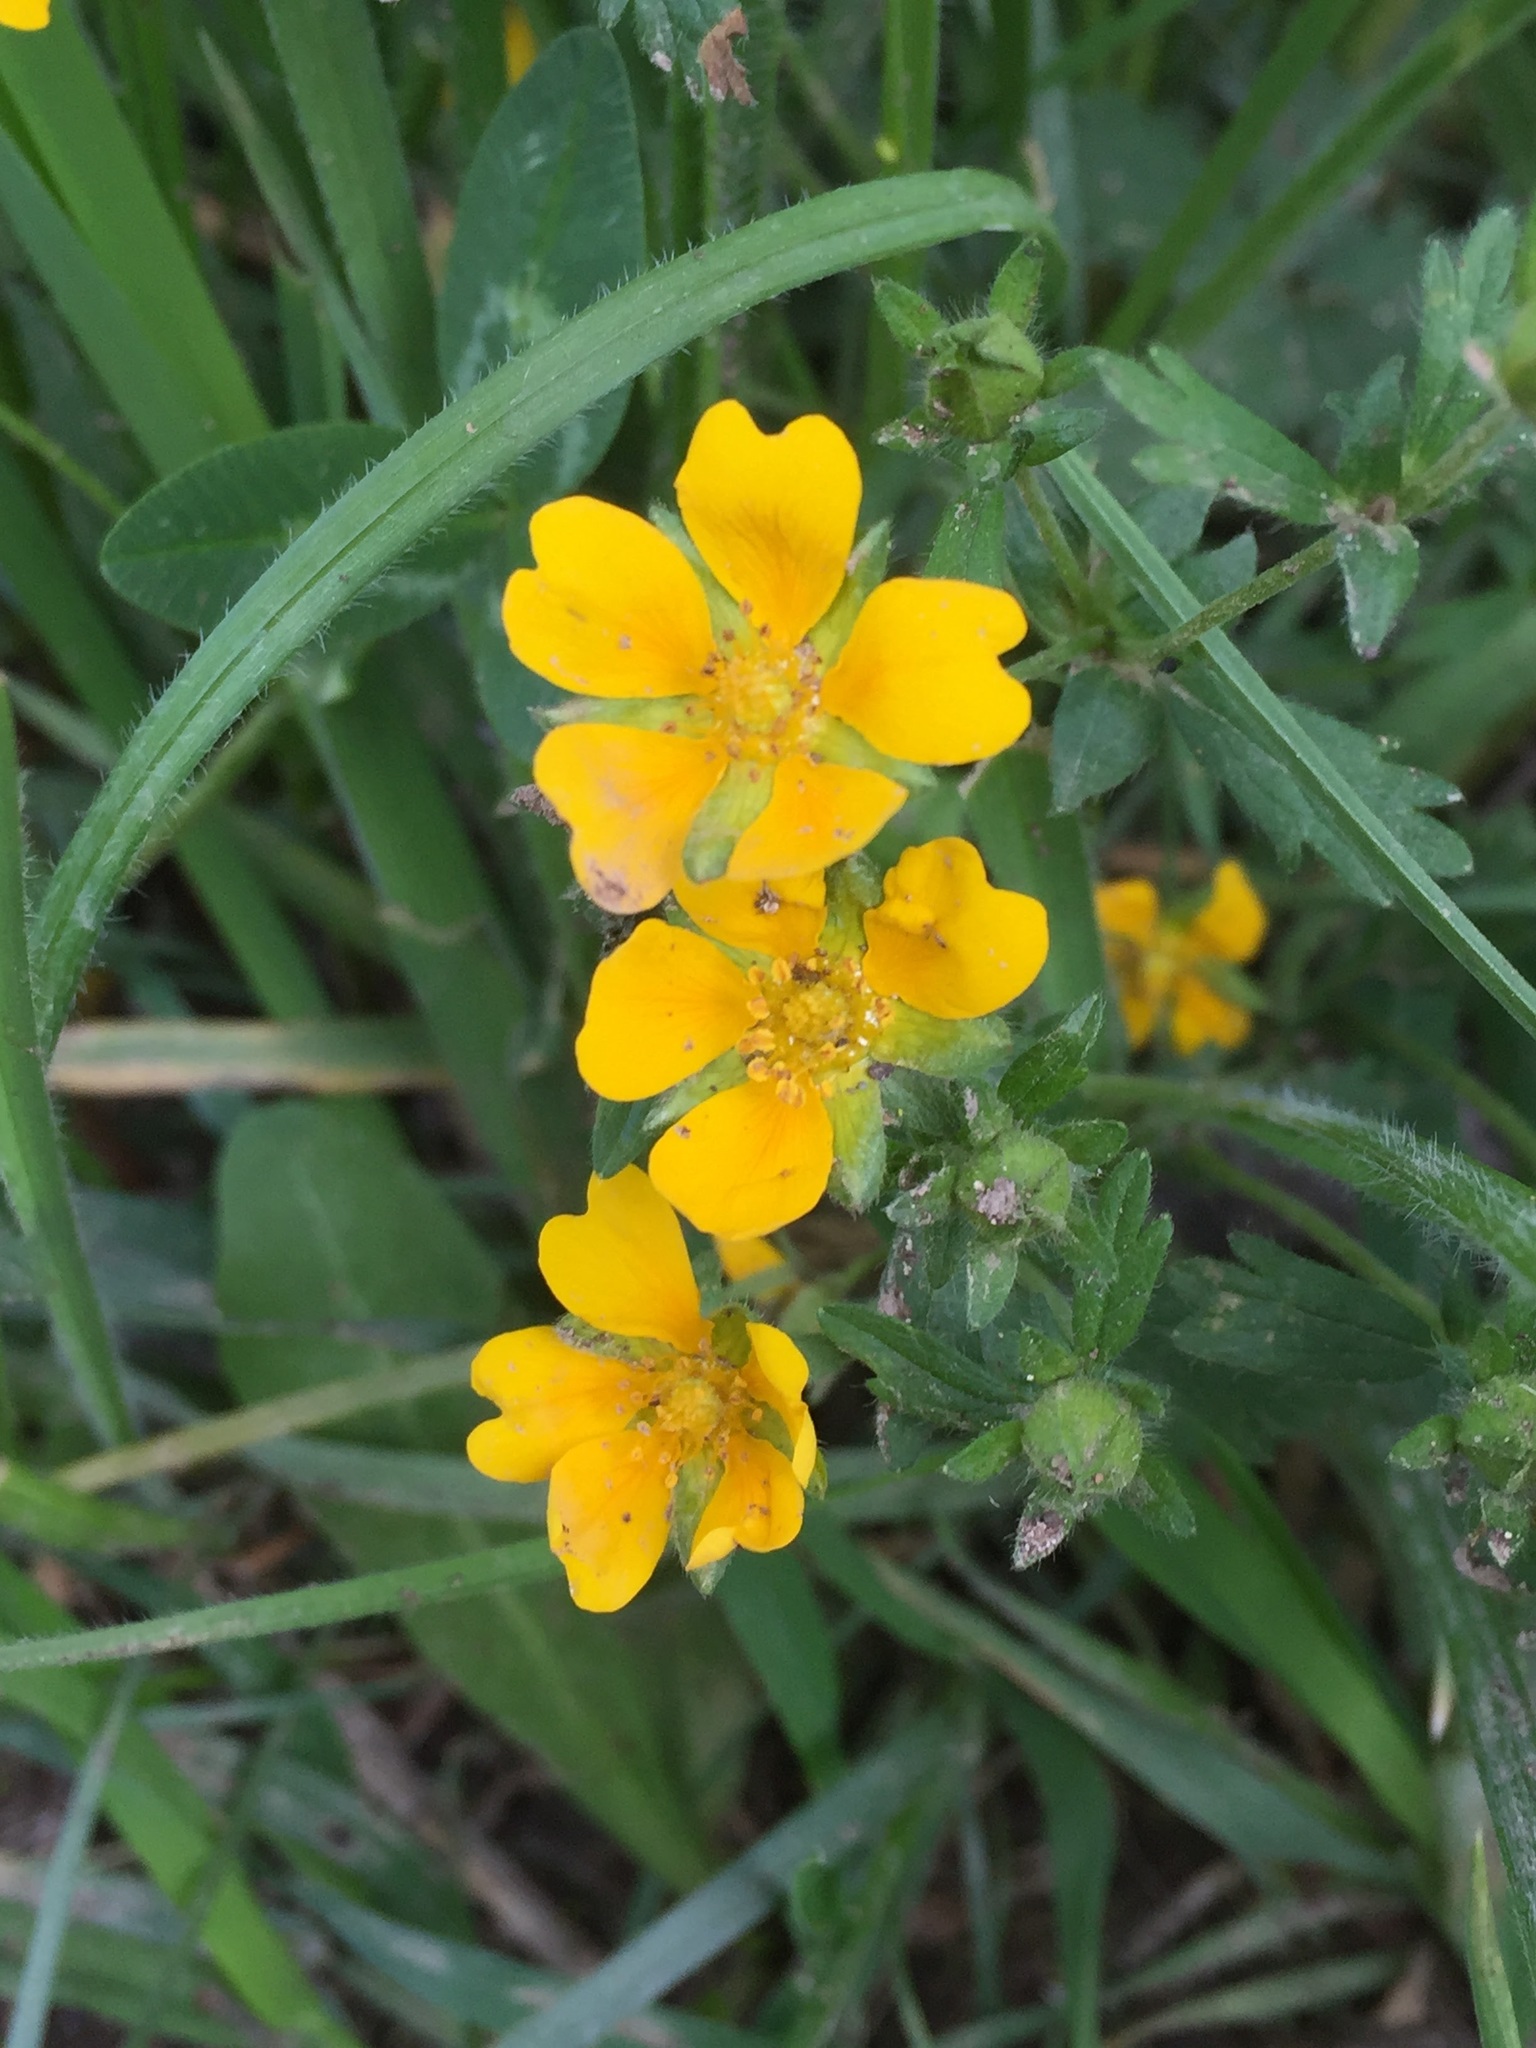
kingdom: Plantae
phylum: Tracheophyta
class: Magnoliopsida
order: Rosales
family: Rosaceae
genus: Potentilla
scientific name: Potentilla reptans
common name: Creeping cinquefoil
